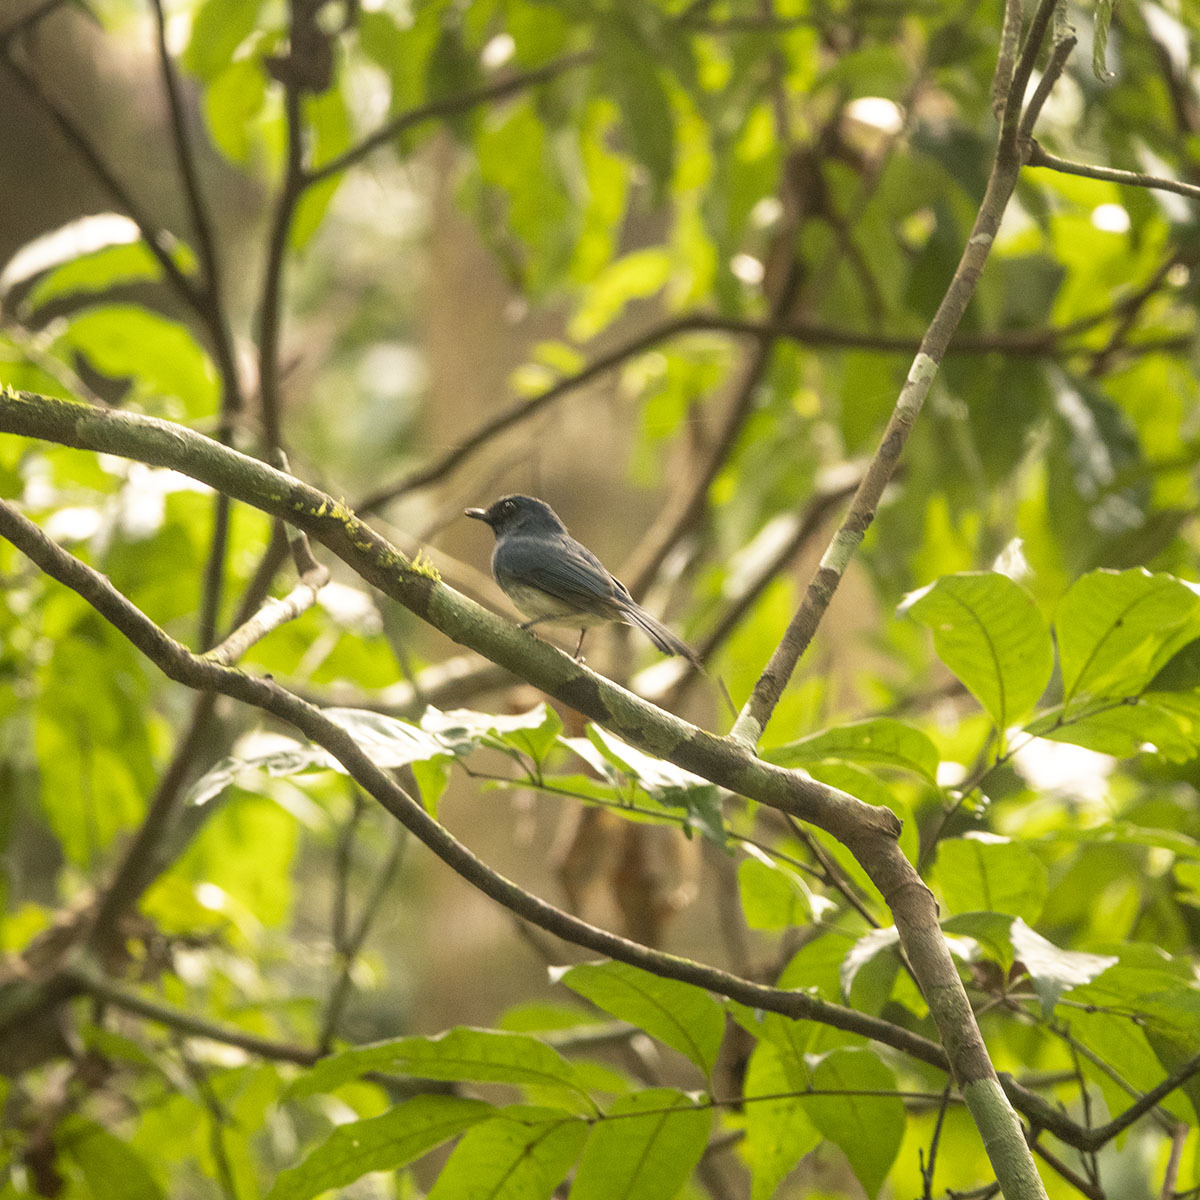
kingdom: Animalia
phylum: Chordata
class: Aves
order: Passeriformes
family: Muscicapidae
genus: Cyornis
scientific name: Cyornis pallidipes
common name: White-bellied blue flycatcher
